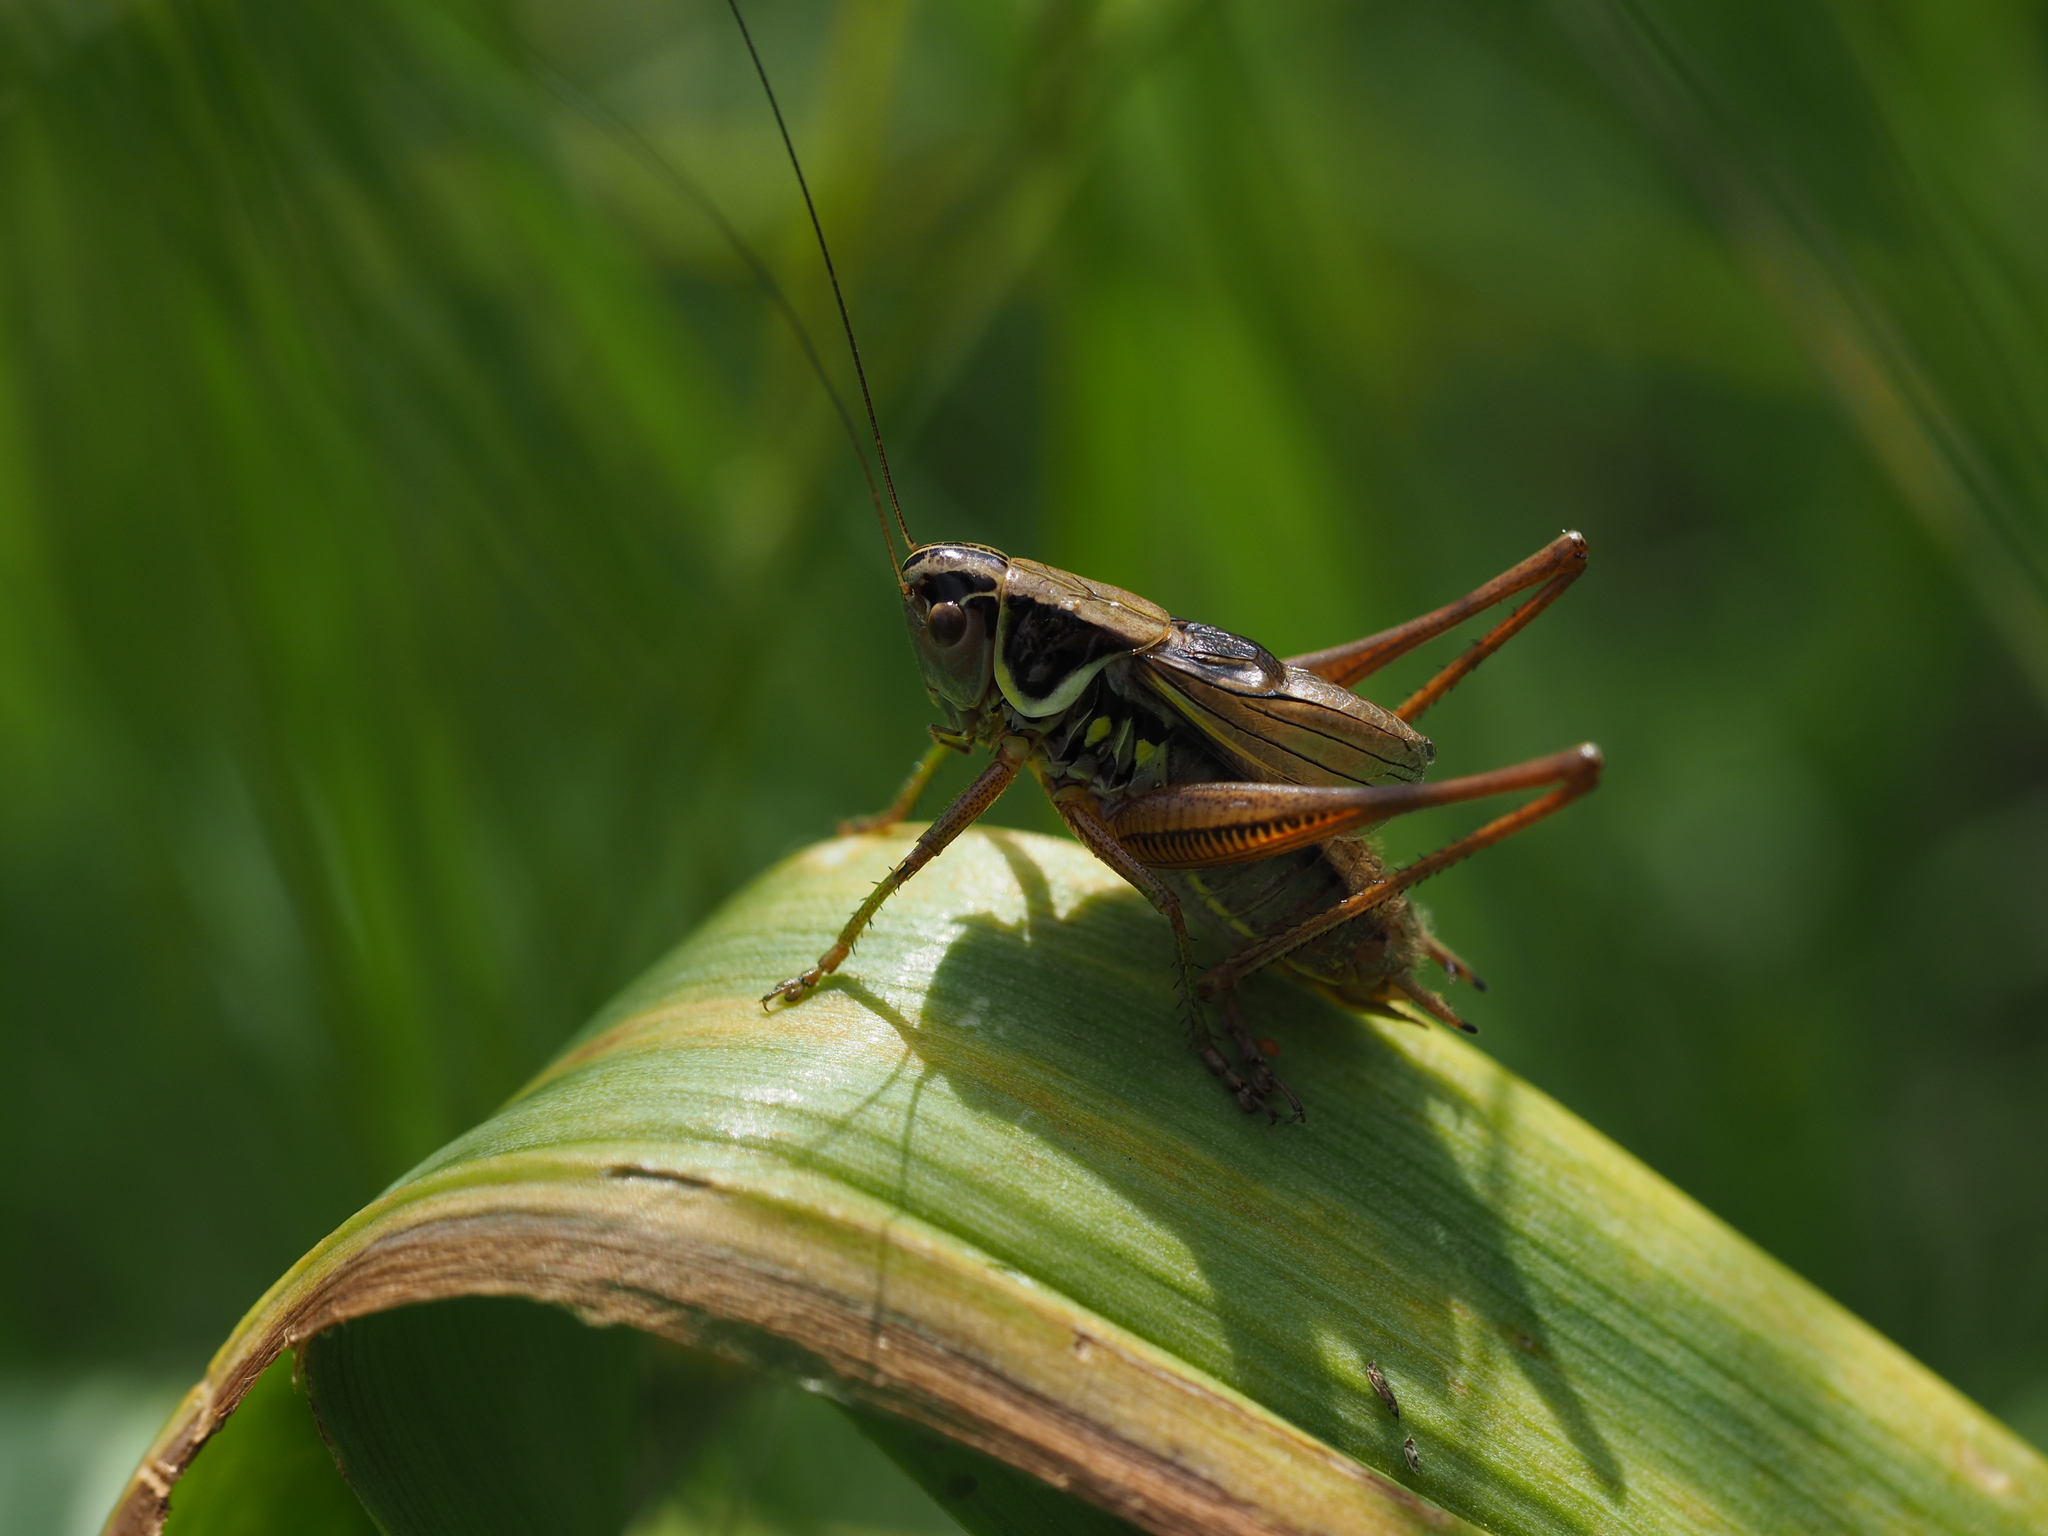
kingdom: Animalia
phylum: Arthropoda
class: Insecta
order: Orthoptera
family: Tettigoniidae
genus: Roeseliana
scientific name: Roeseliana roeselii
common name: Roesel's bush cricket
